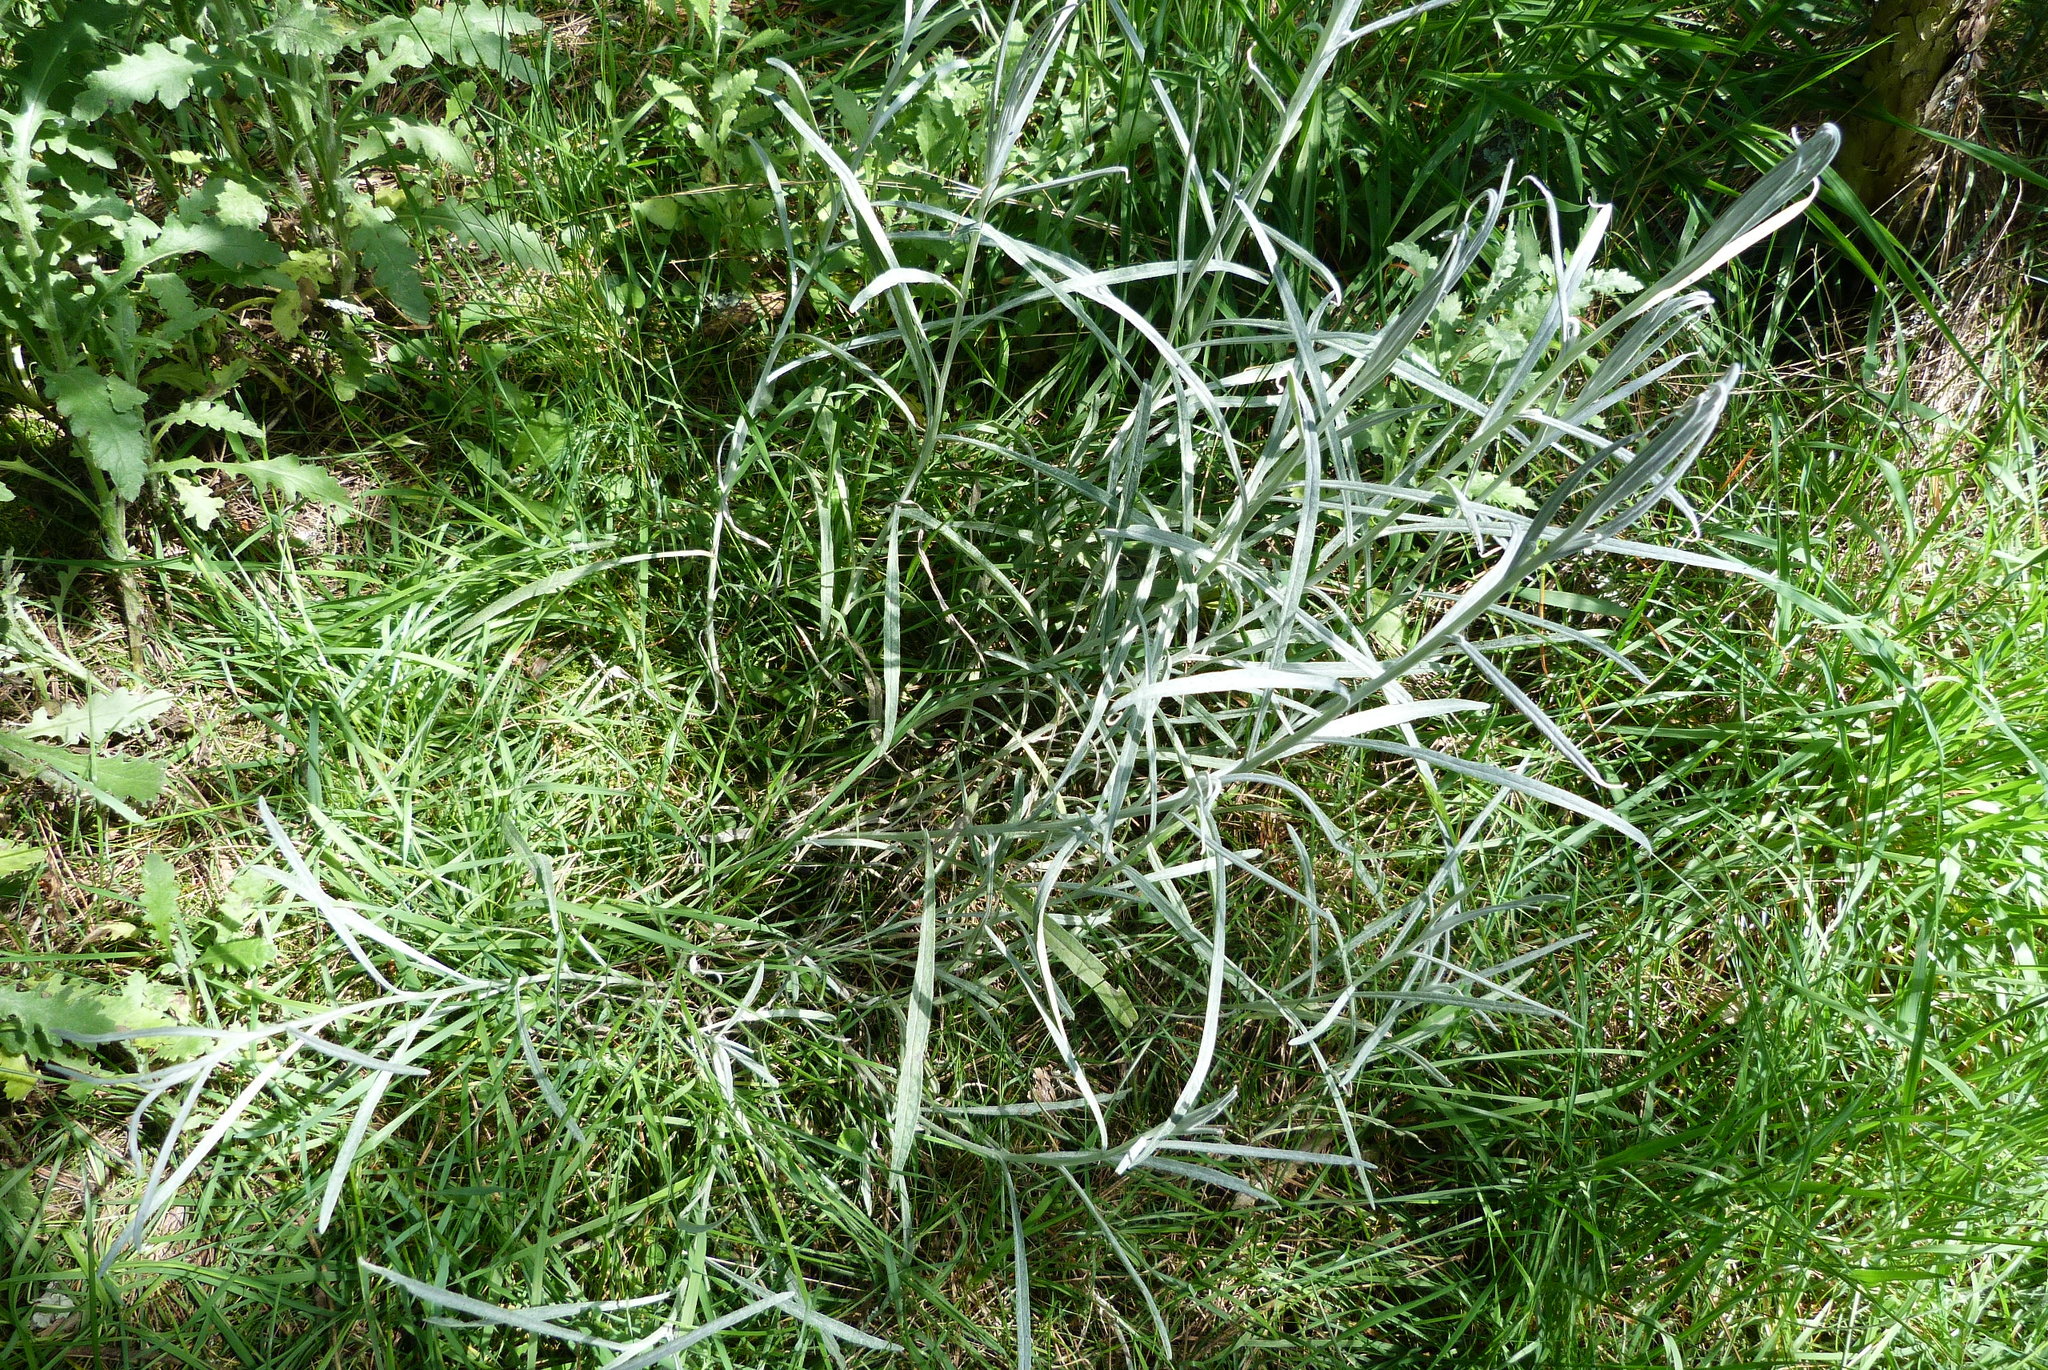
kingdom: Plantae
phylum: Tracheophyta
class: Magnoliopsida
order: Asterales
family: Asteraceae
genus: Senecio
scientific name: Senecio quadridentatus
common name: Cotton fireweed
